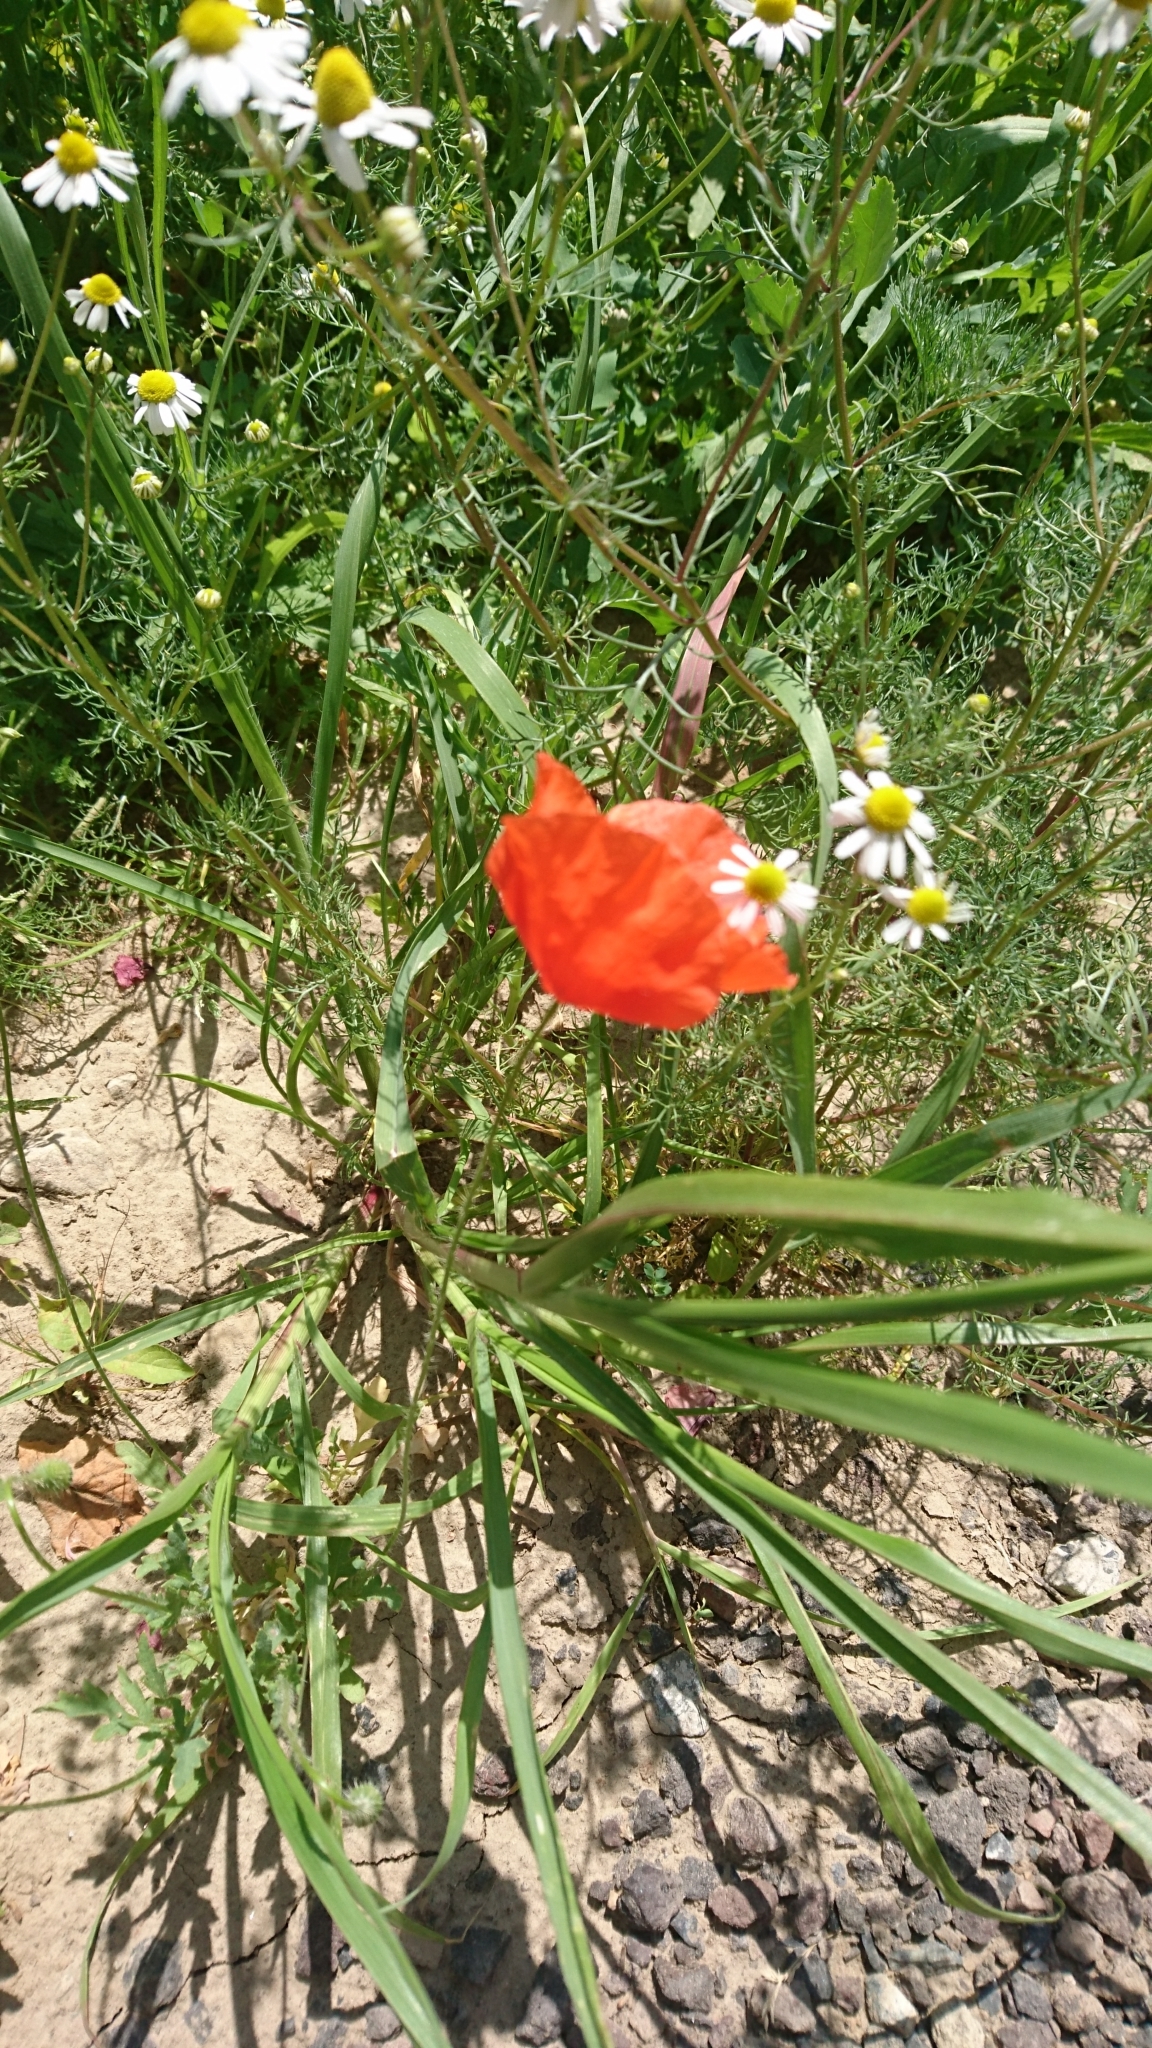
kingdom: Plantae
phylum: Tracheophyta
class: Magnoliopsida
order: Ranunculales
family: Papaveraceae
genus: Papaver
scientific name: Papaver rhoeas
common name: Corn poppy
